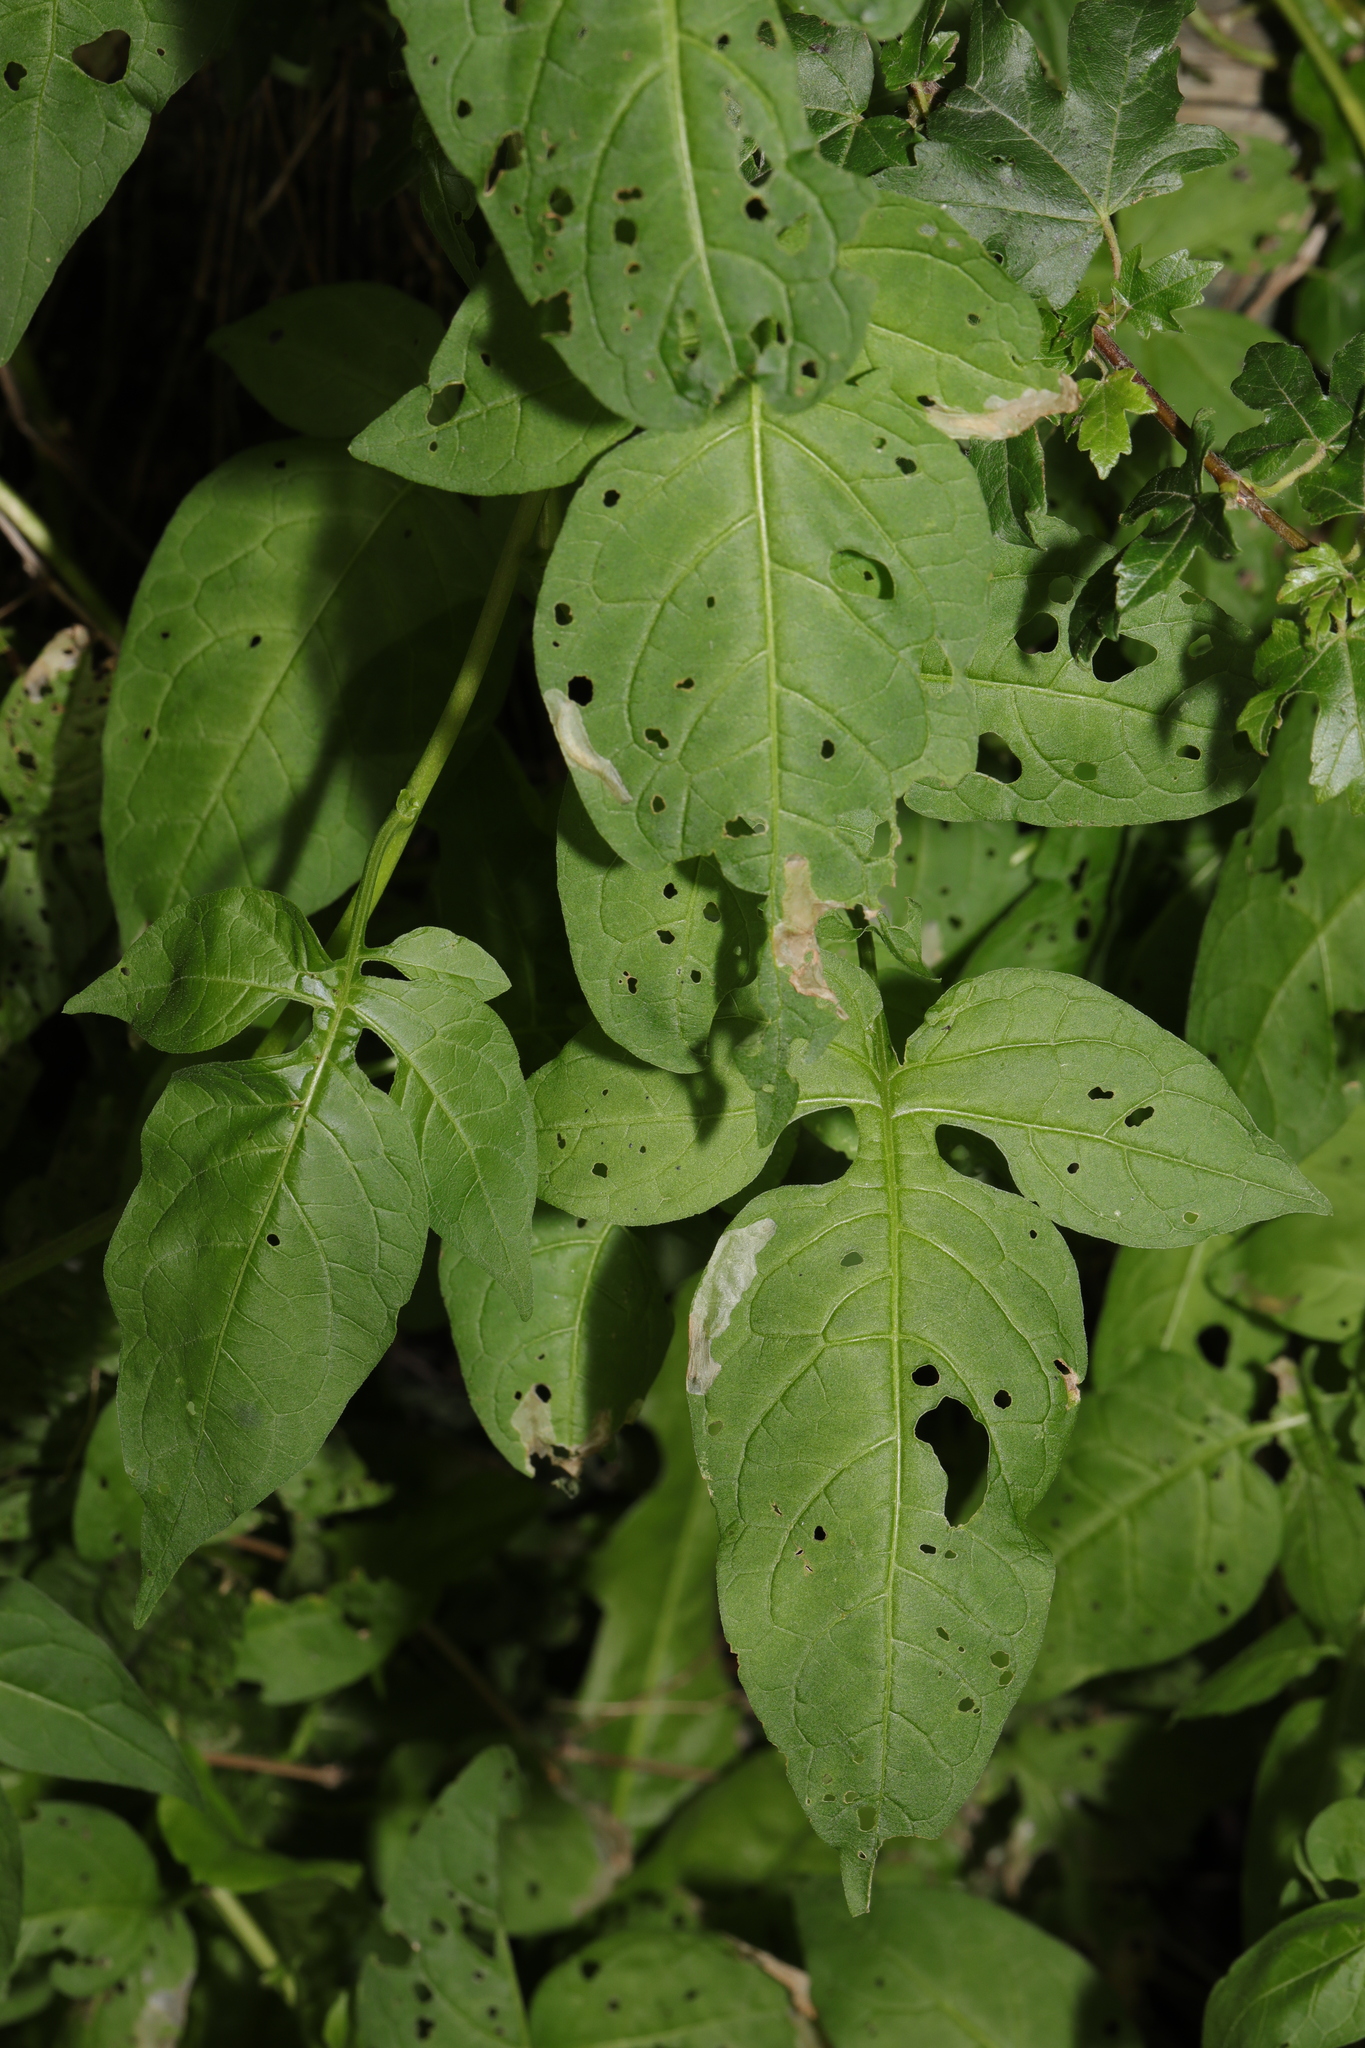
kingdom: Plantae
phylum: Tracheophyta
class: Magnoliopsida
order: Solanales
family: Solanaceae
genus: Solanum
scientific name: Solanum dulcamara
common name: Climbing nightshade
